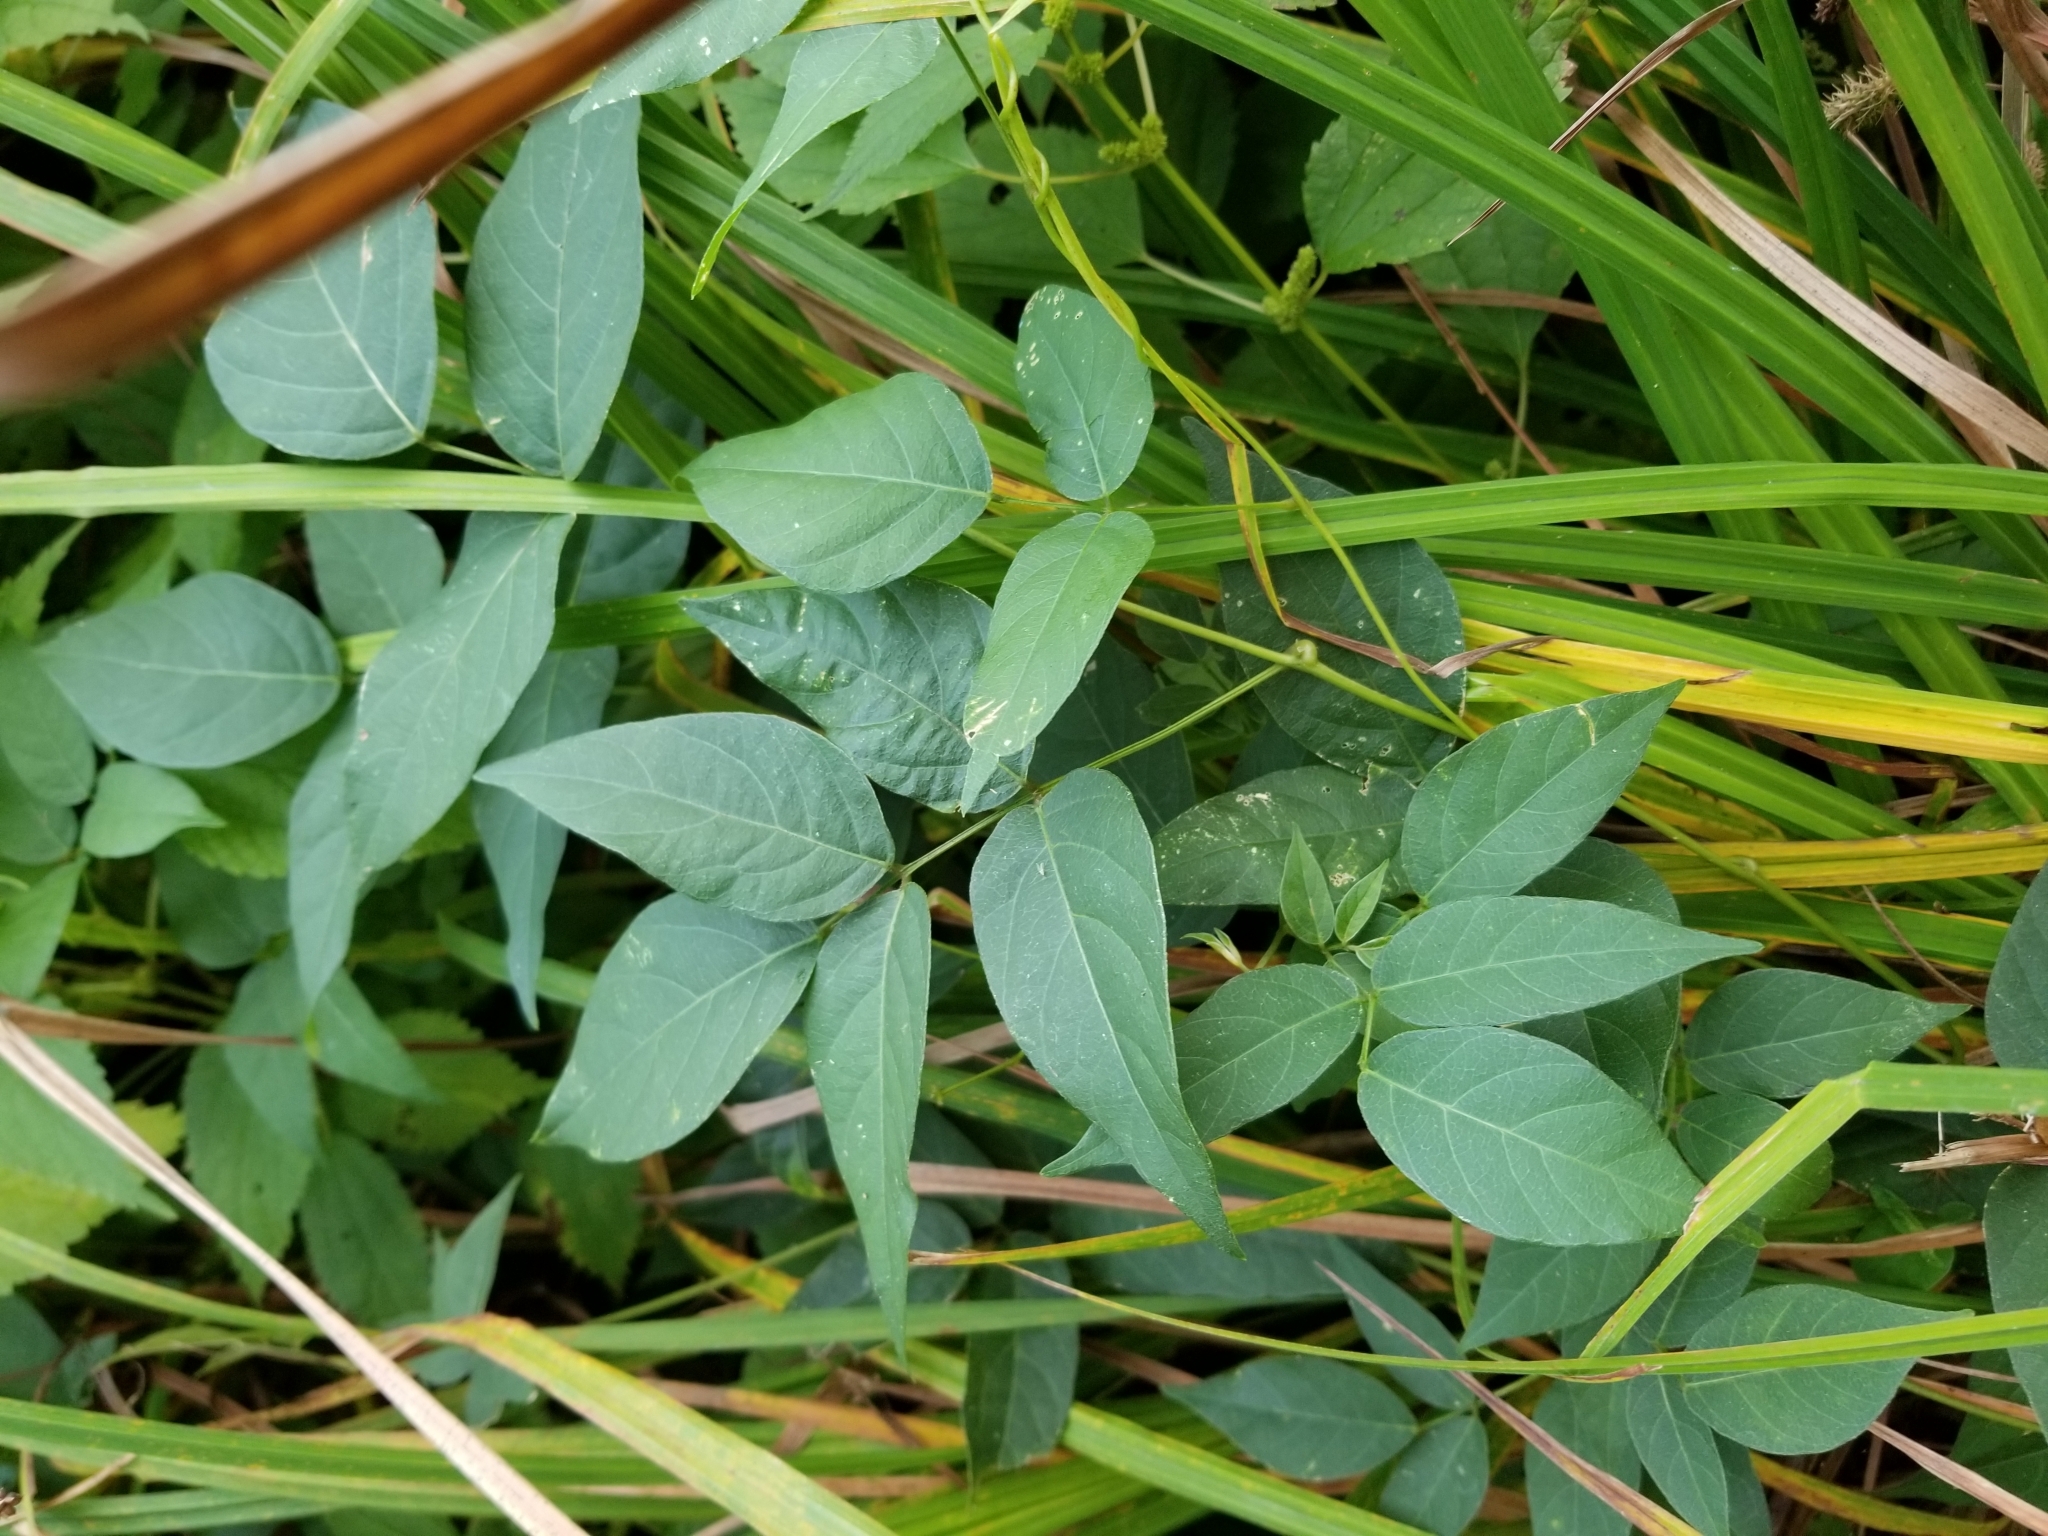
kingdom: Plantae
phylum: Tracheophyta
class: Magnoliopsida
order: Fabales
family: Fabaceae
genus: Apios
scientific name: Apios americana
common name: American potato-bean
